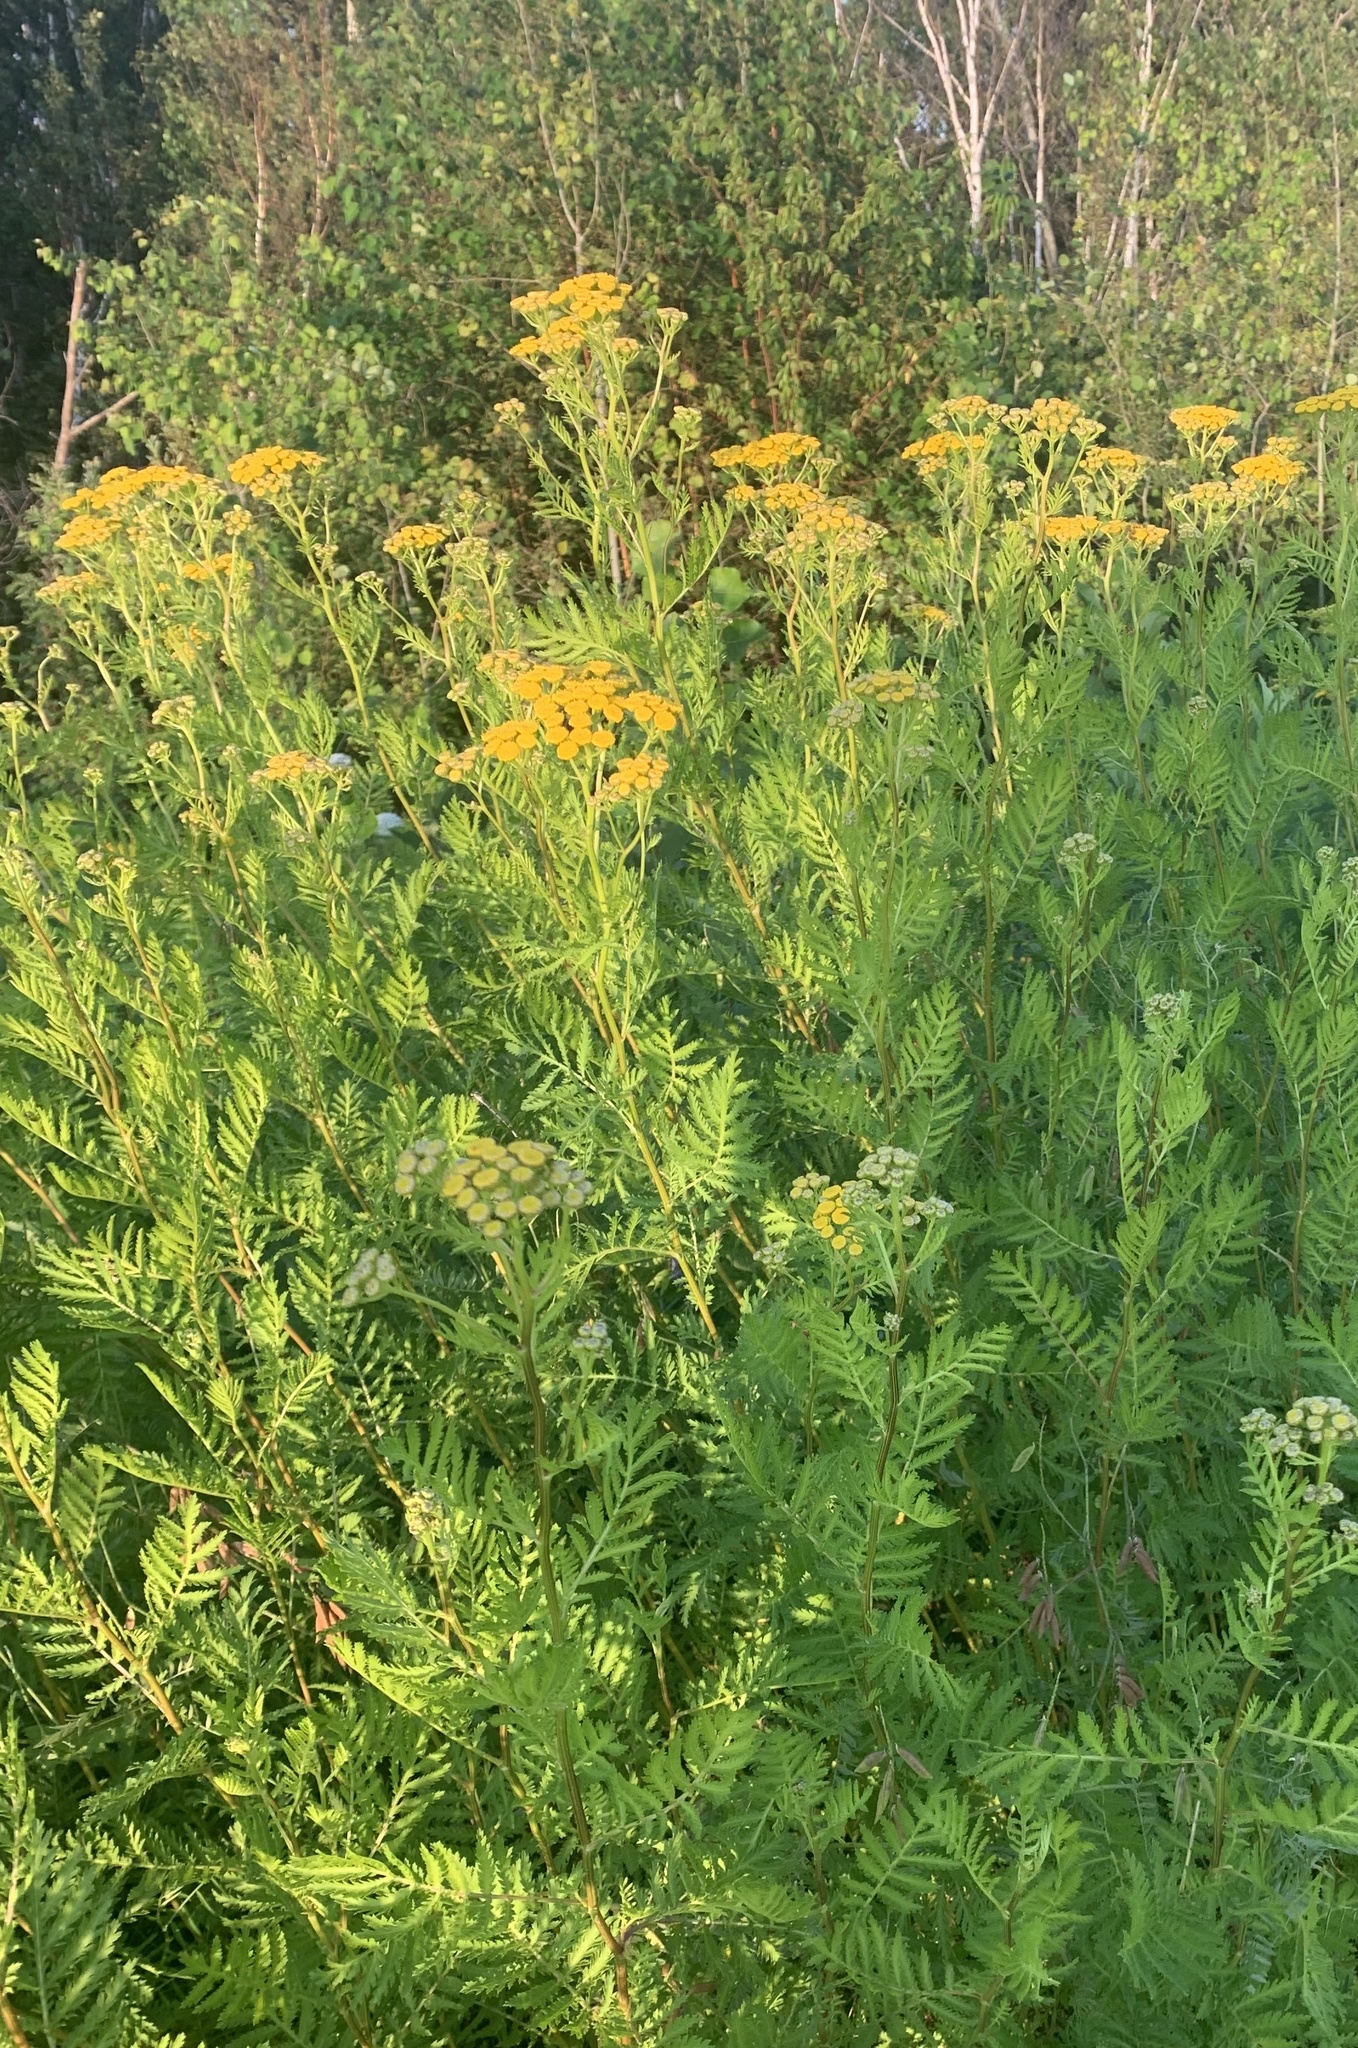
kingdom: Plantae
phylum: Tracheophyta
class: Magnoliopsida
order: Asterales
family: Asteraceae
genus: Tanacetum
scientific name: Tanacetum vulgare
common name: Common tansy
